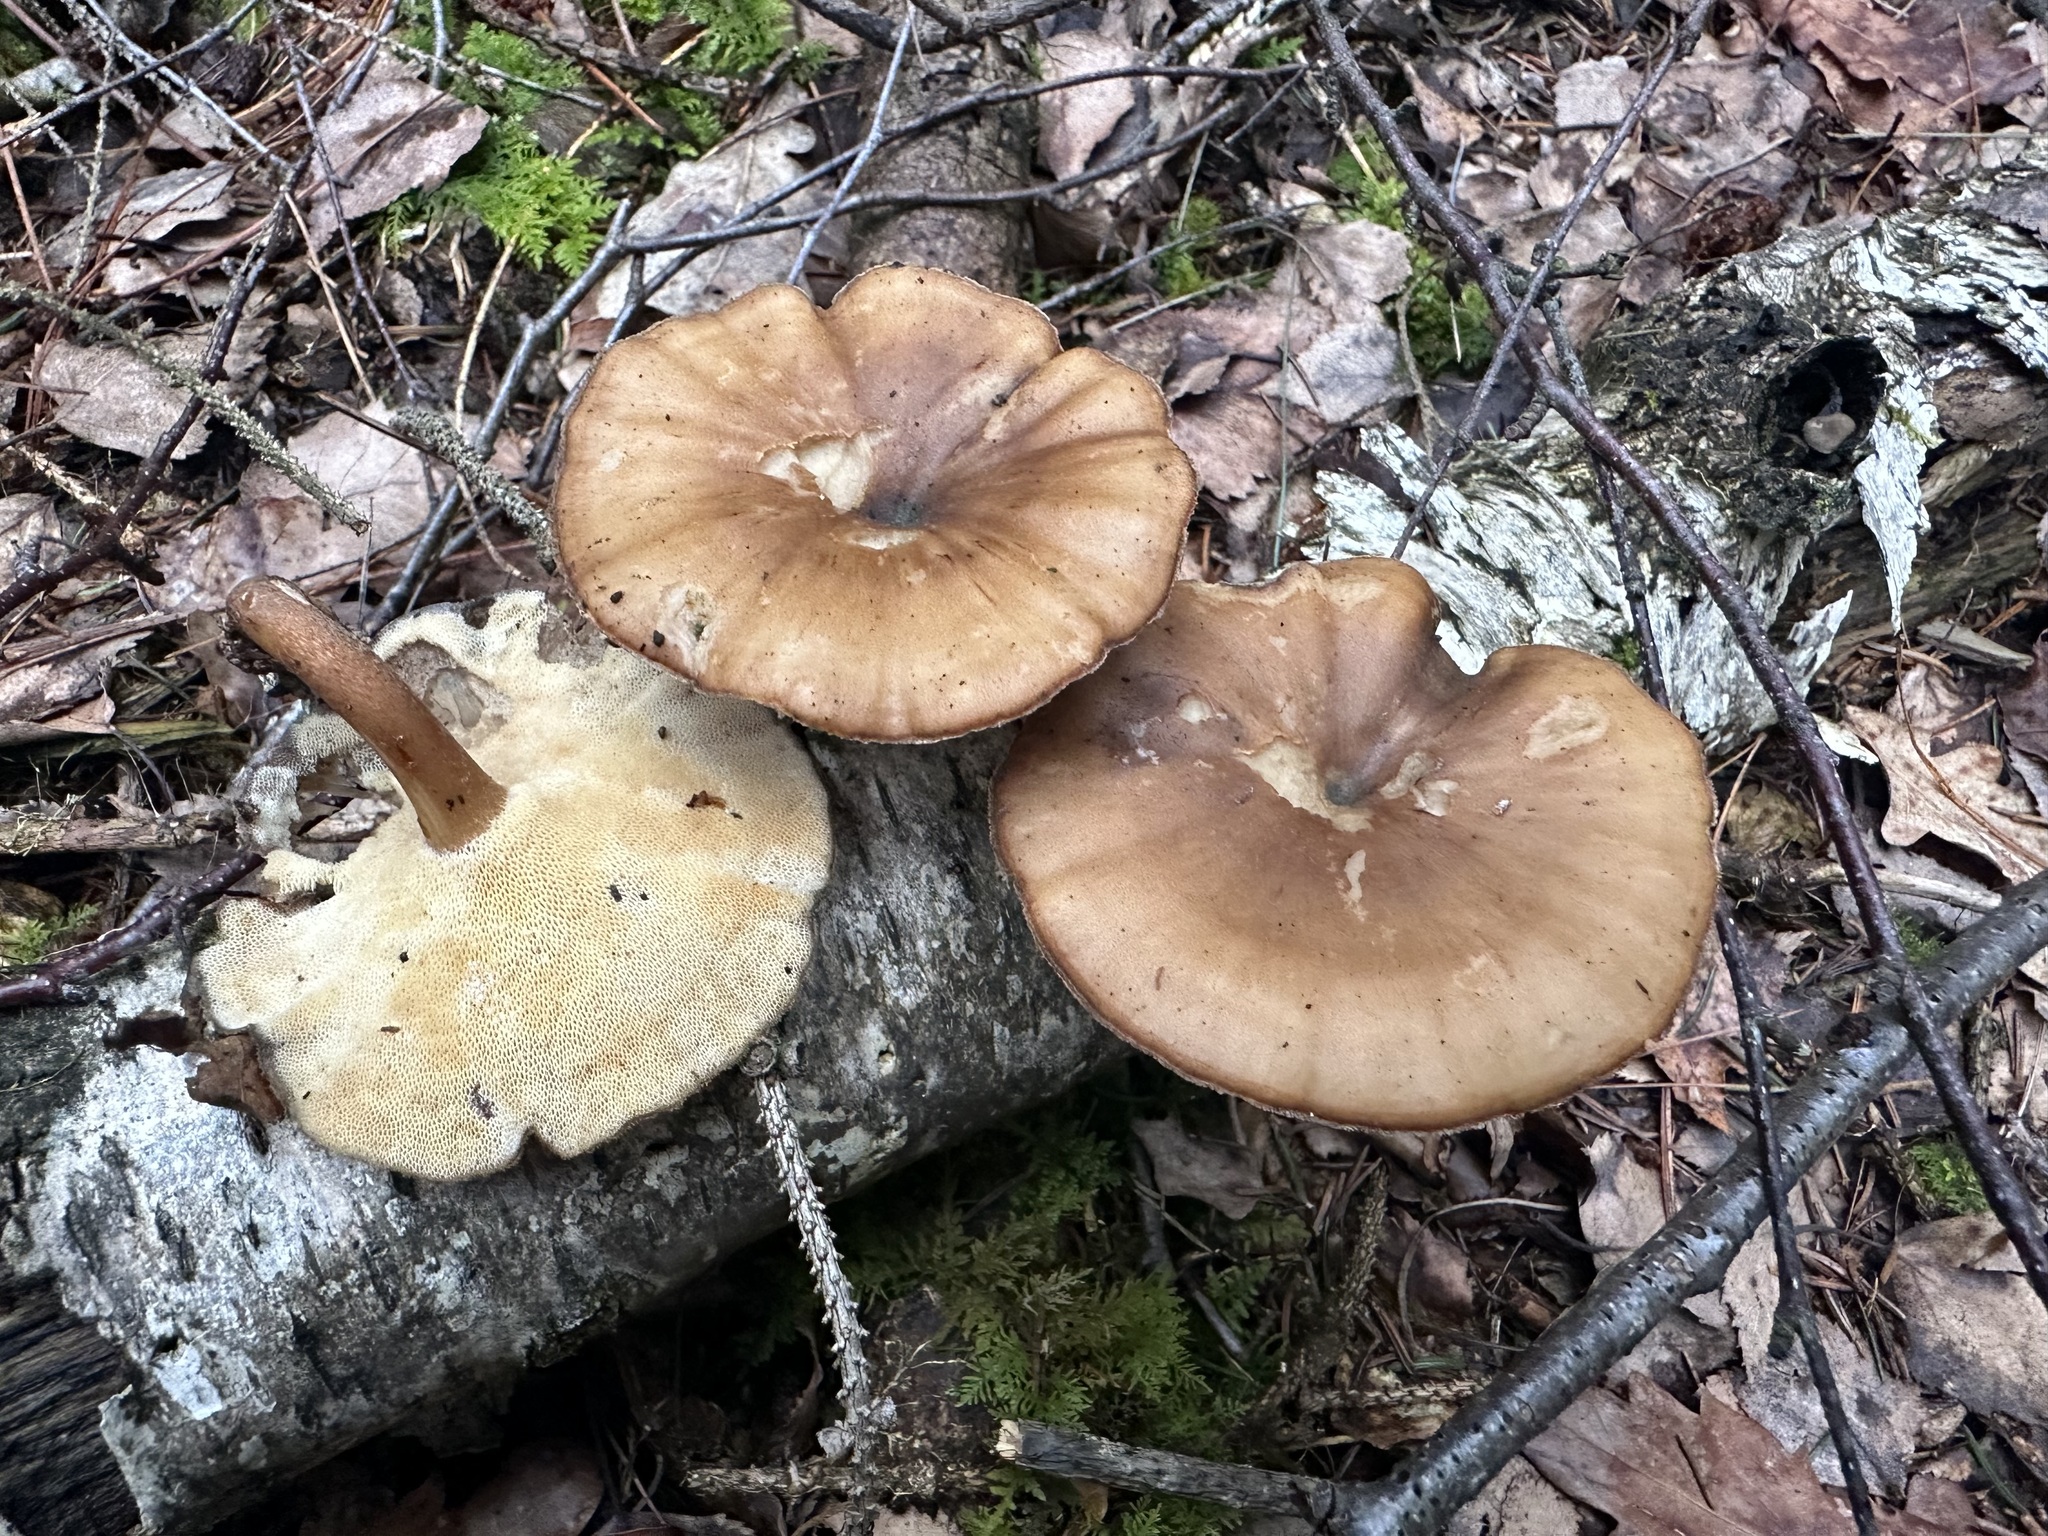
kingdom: Fungi
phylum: Basidiomycota
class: Agaricomycetes
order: Polyporales
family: Polyporaceae
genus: Lentinus
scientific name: Lentinus brumalis
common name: Winter polypore
